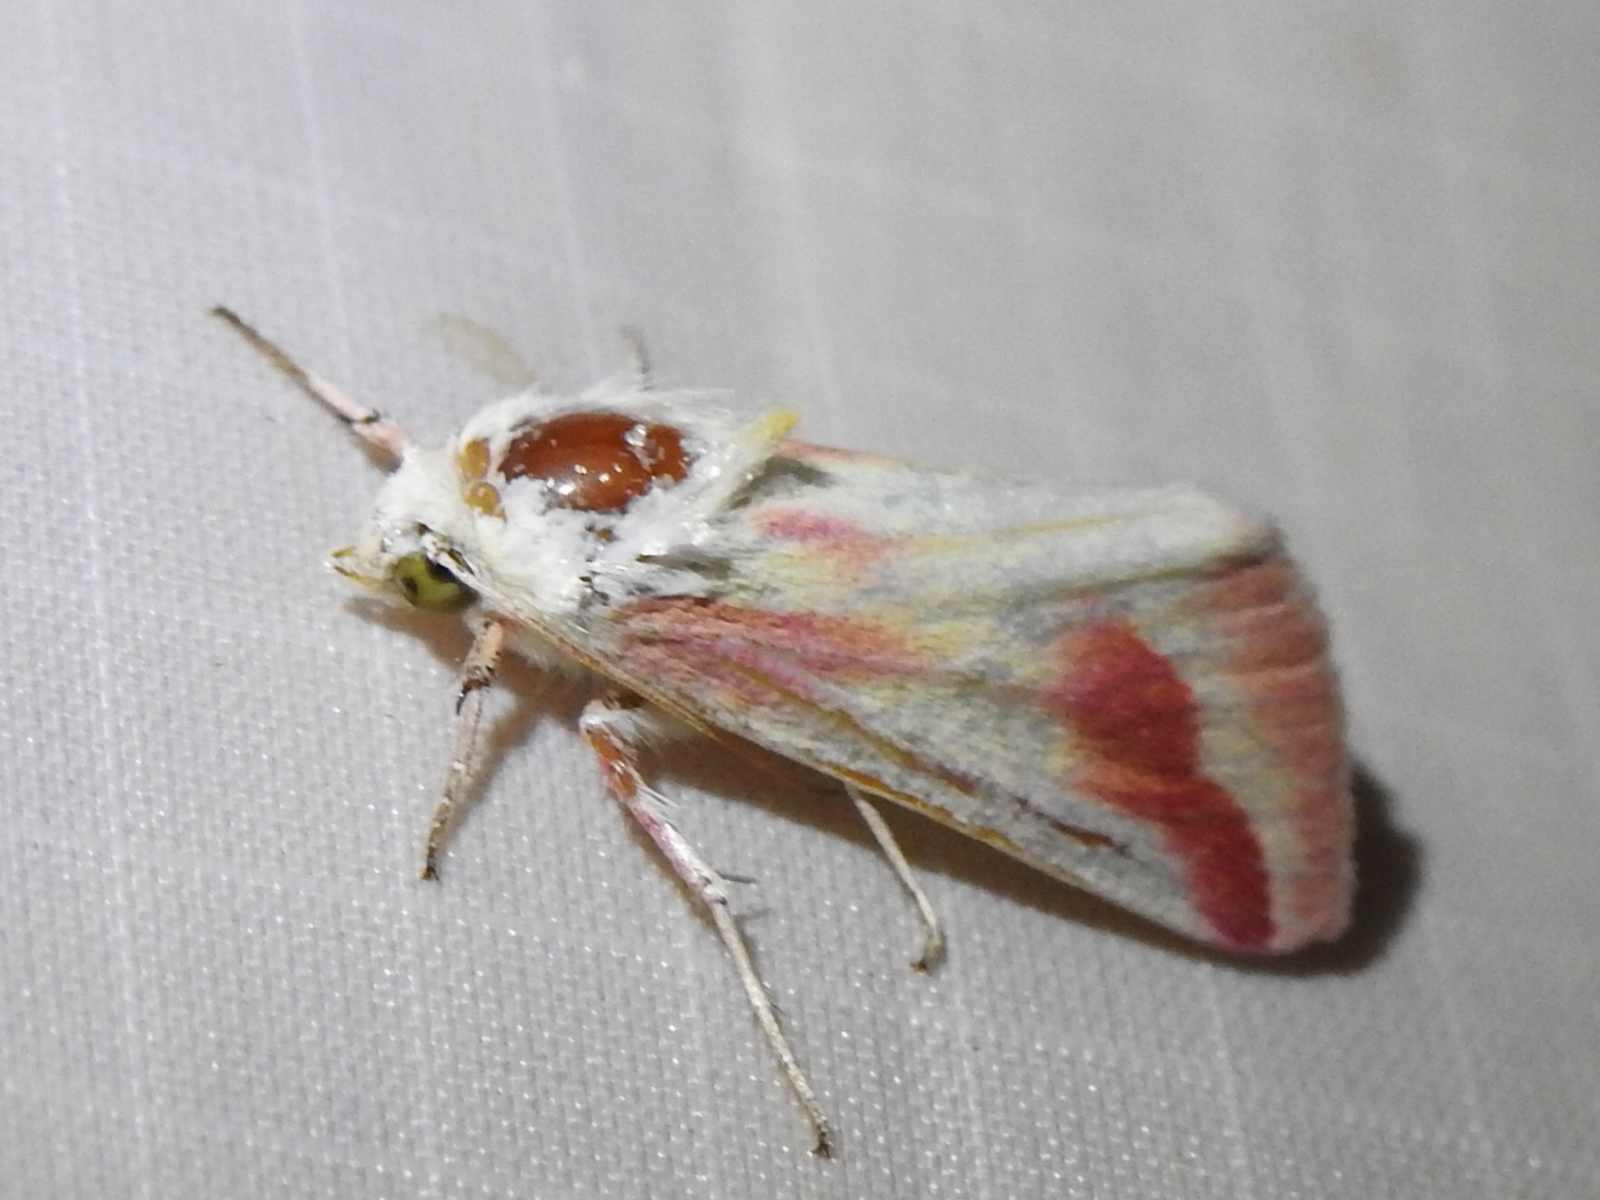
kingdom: Animalia
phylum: Arthropoda
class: Insecta
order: Lepidoptera
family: Noctuidae
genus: Schinia
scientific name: Schinia gaurae
